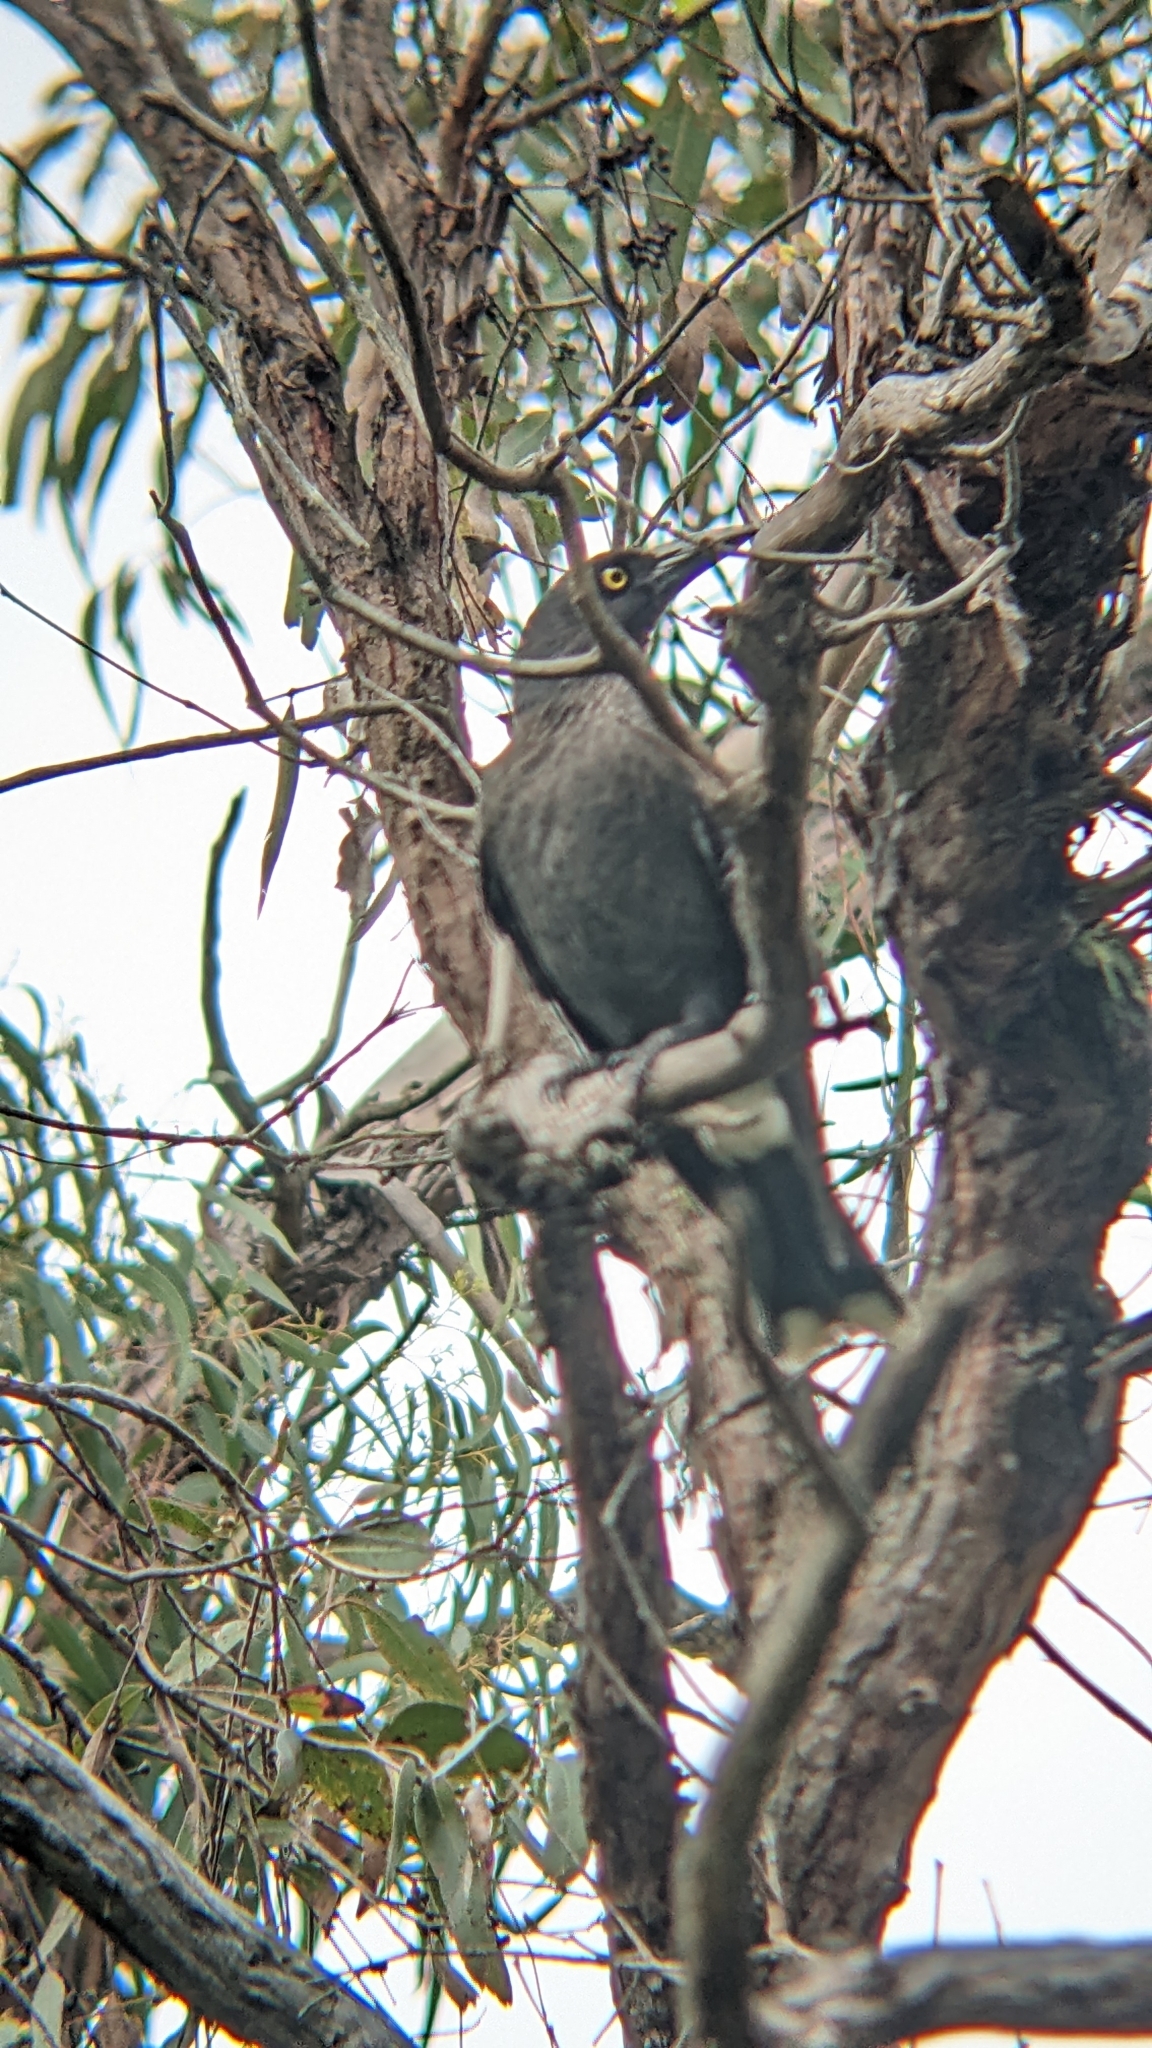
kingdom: Animalia
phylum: Chordata
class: Aves
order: Passeriformes
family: Cracticidae
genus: Strepera
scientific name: Strepera graculina
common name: Pied currawong
